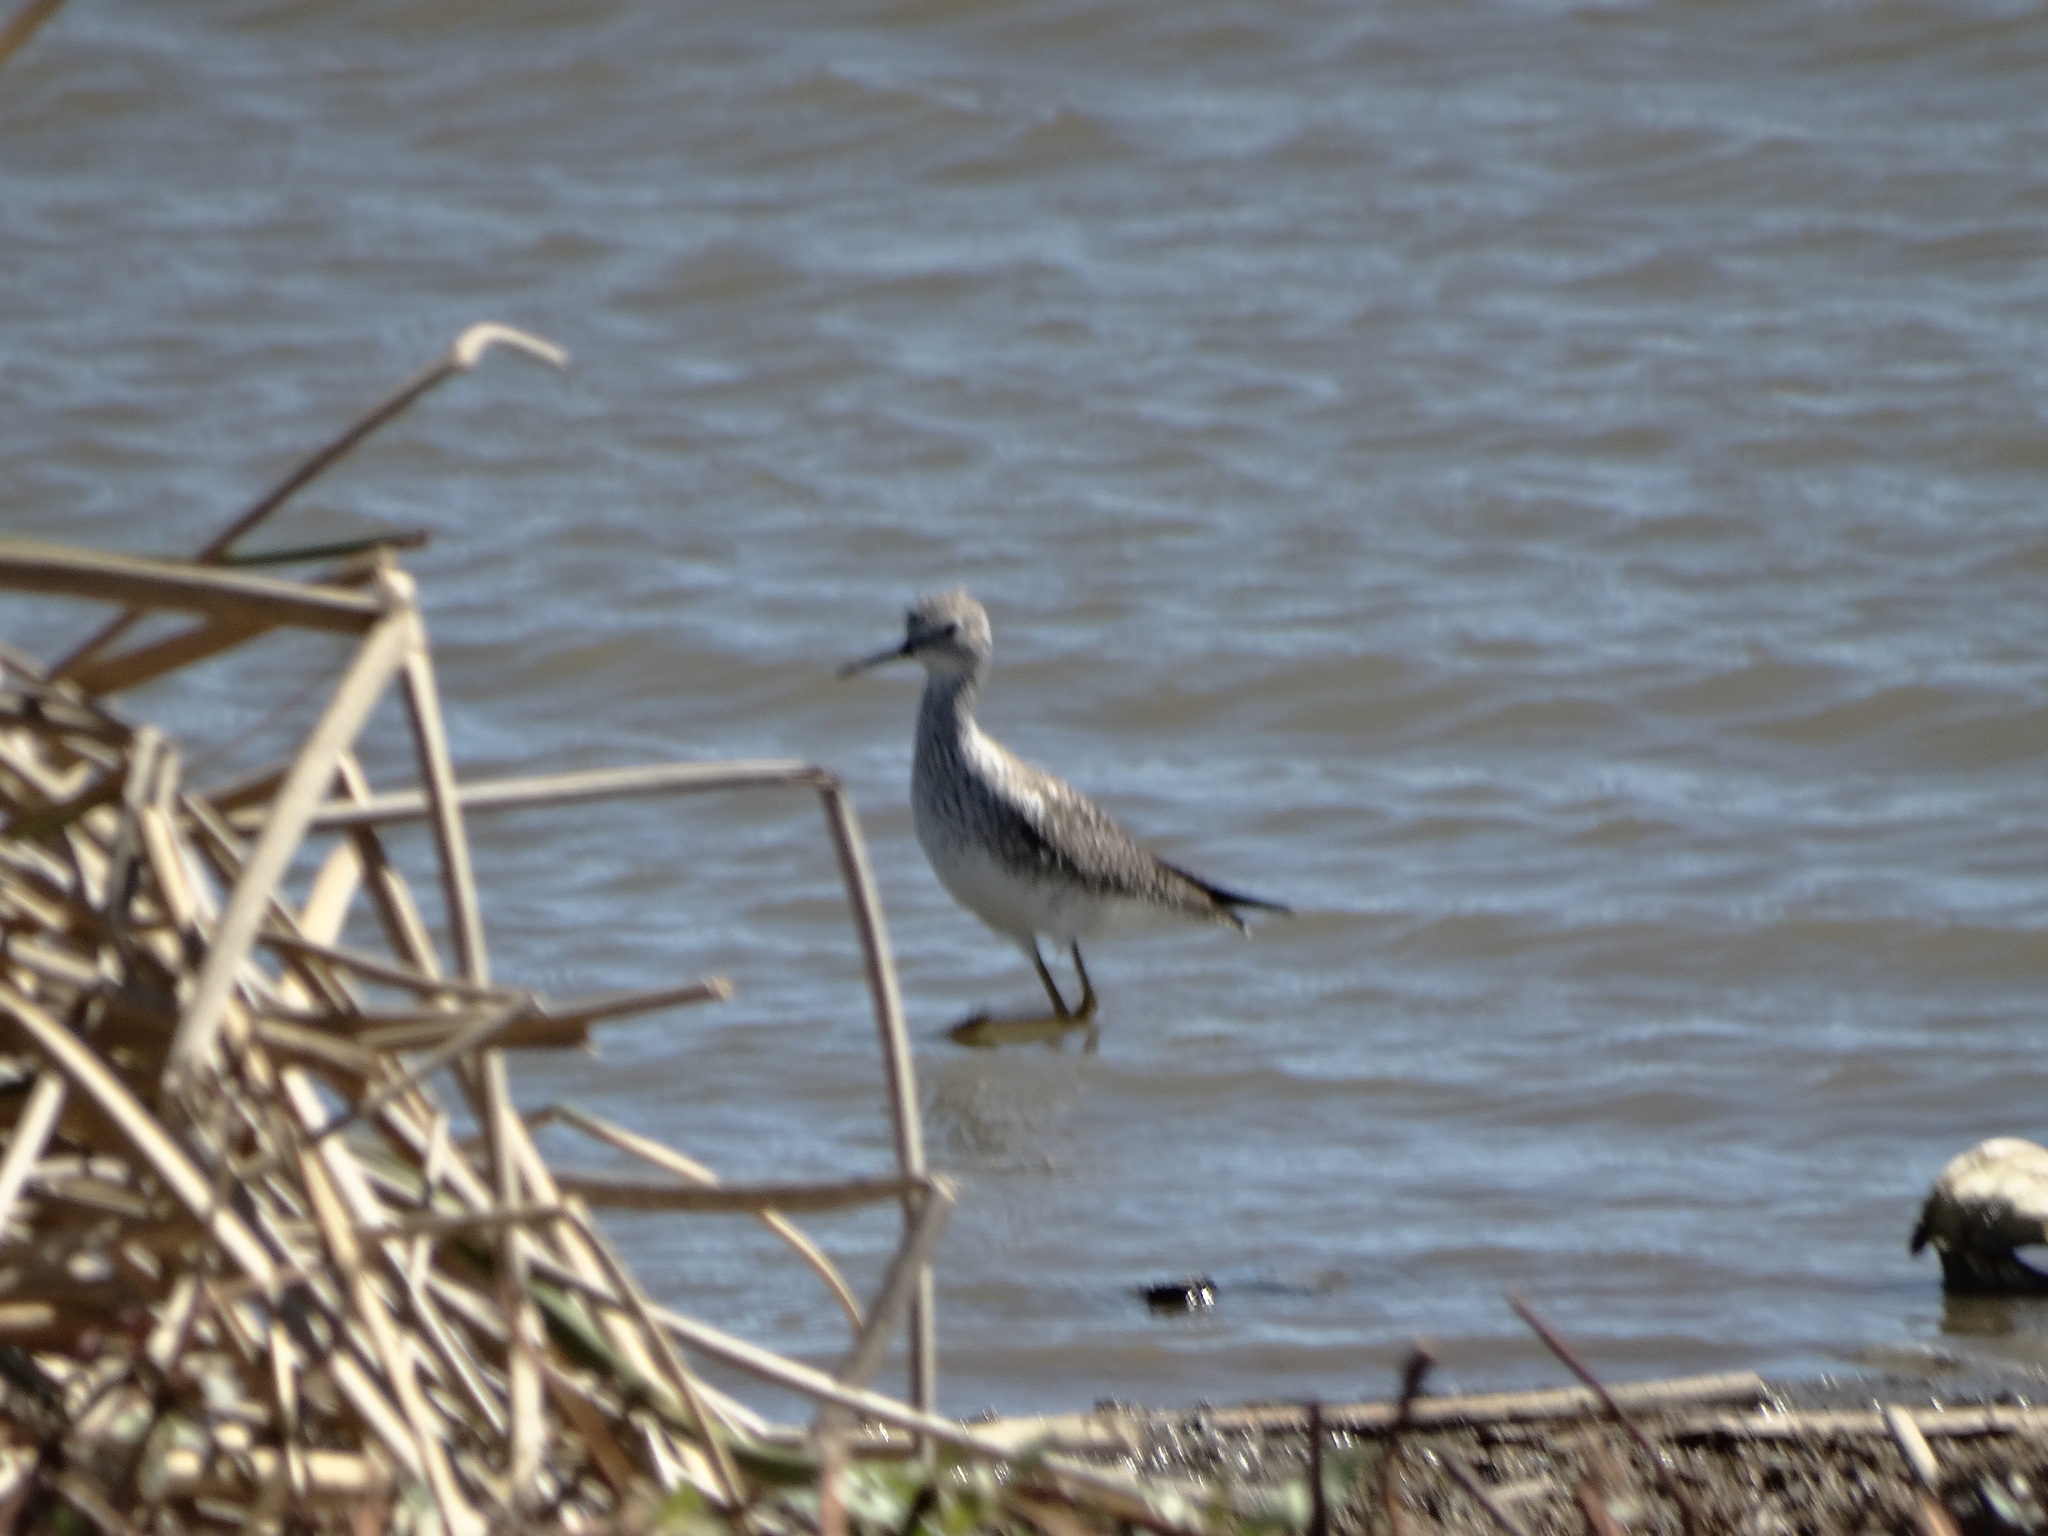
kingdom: Animalia
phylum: Chordata
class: Aves
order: Charadriiformes
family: Scolopacidae
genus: Tringa
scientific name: Tringa flavipes
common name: Lesser yellowlegs
